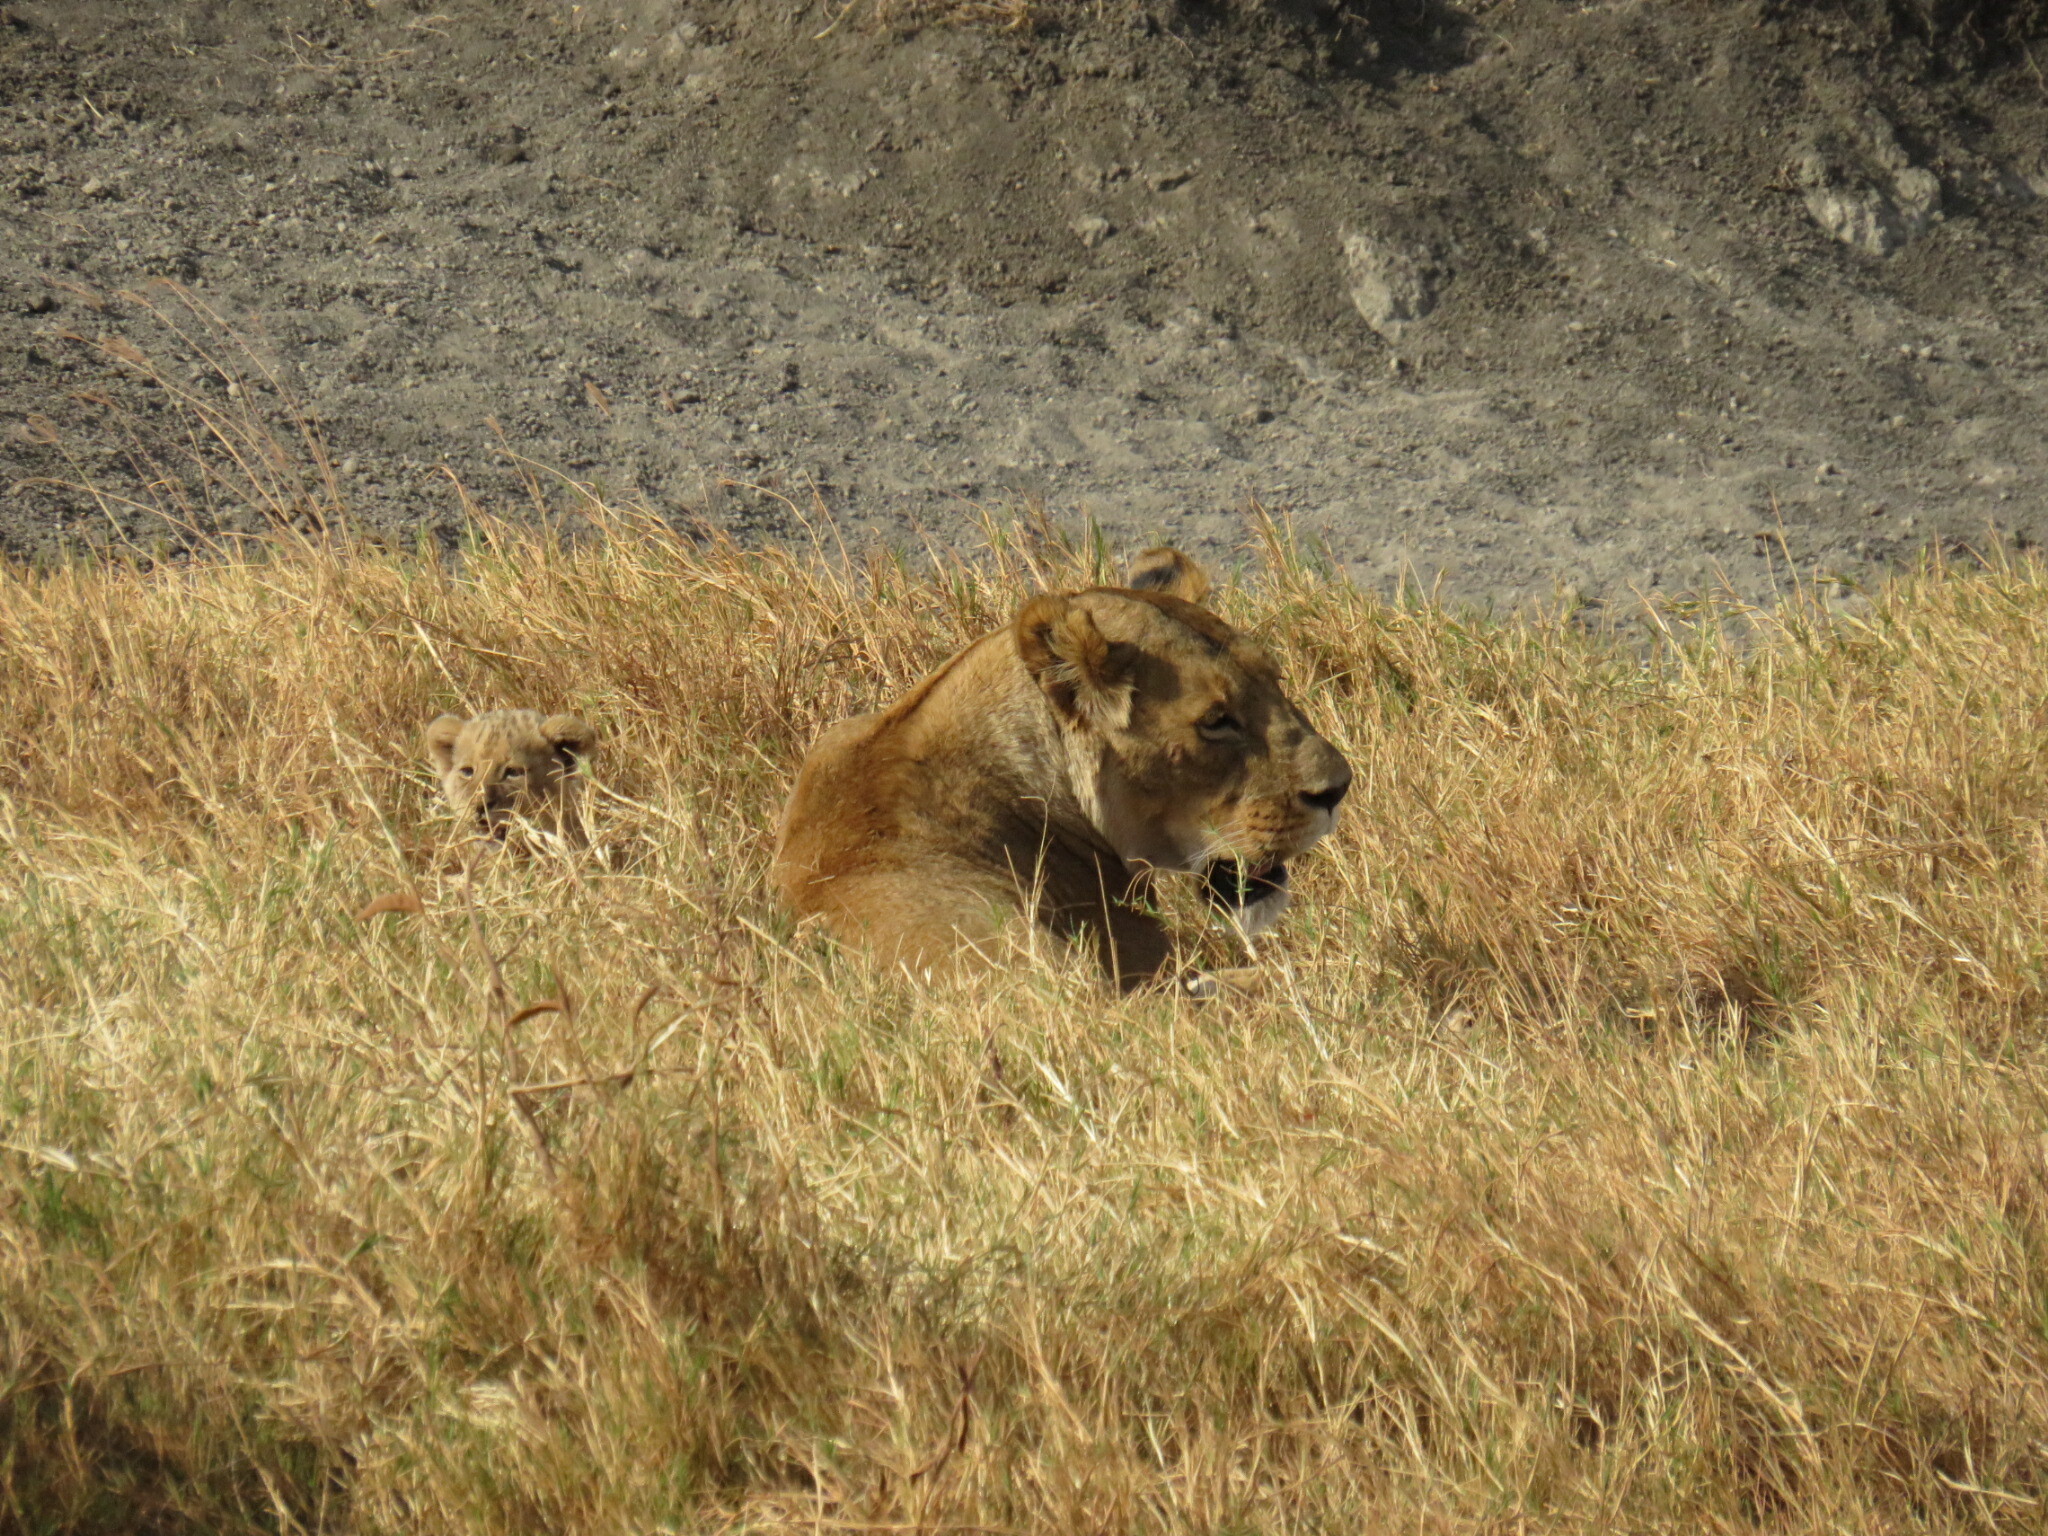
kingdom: Animalia
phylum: Chordata
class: Mammalia
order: Carnivora
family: Felidae
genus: Panthera
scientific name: Panthera leo
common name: Lion
